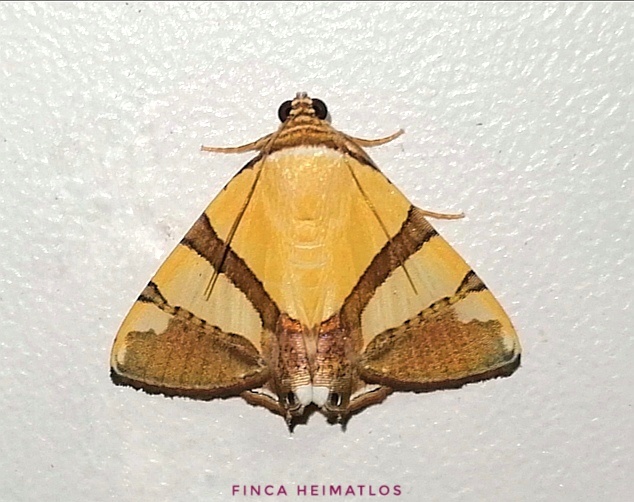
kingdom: Animalia
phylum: Arthropoda
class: Insecta
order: Lepidoptera
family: Erebidae
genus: Eulepidotis
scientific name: Eulepidotis julianata
